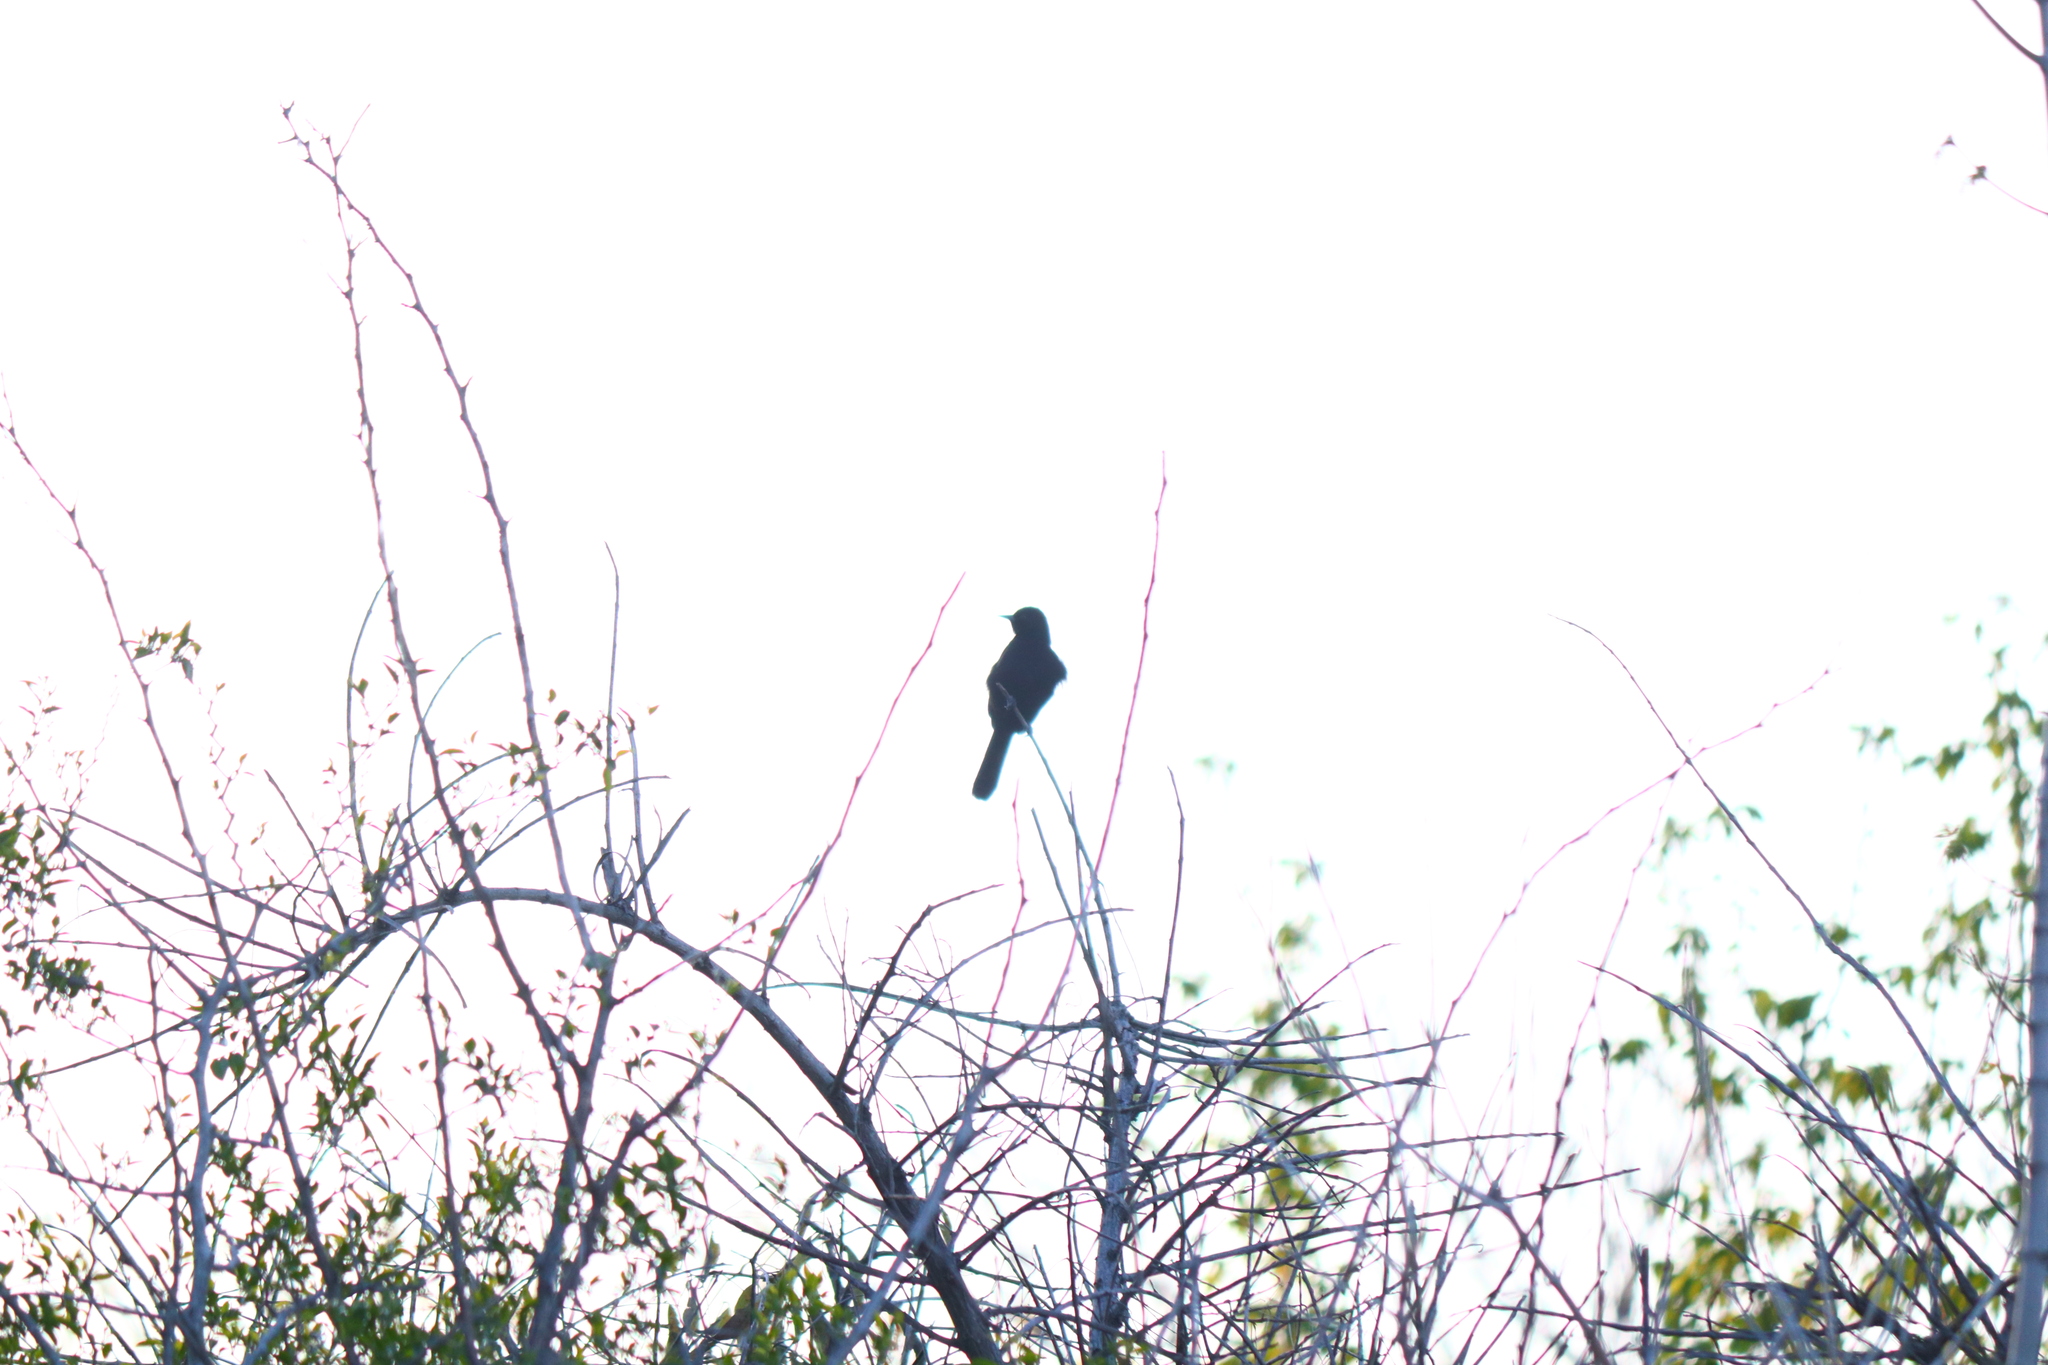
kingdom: Animalia
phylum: Chordata
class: Aves
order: Passeriformes
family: Icteridae
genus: Icterus
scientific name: Icterus cayanensis
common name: Epaulet oriole
